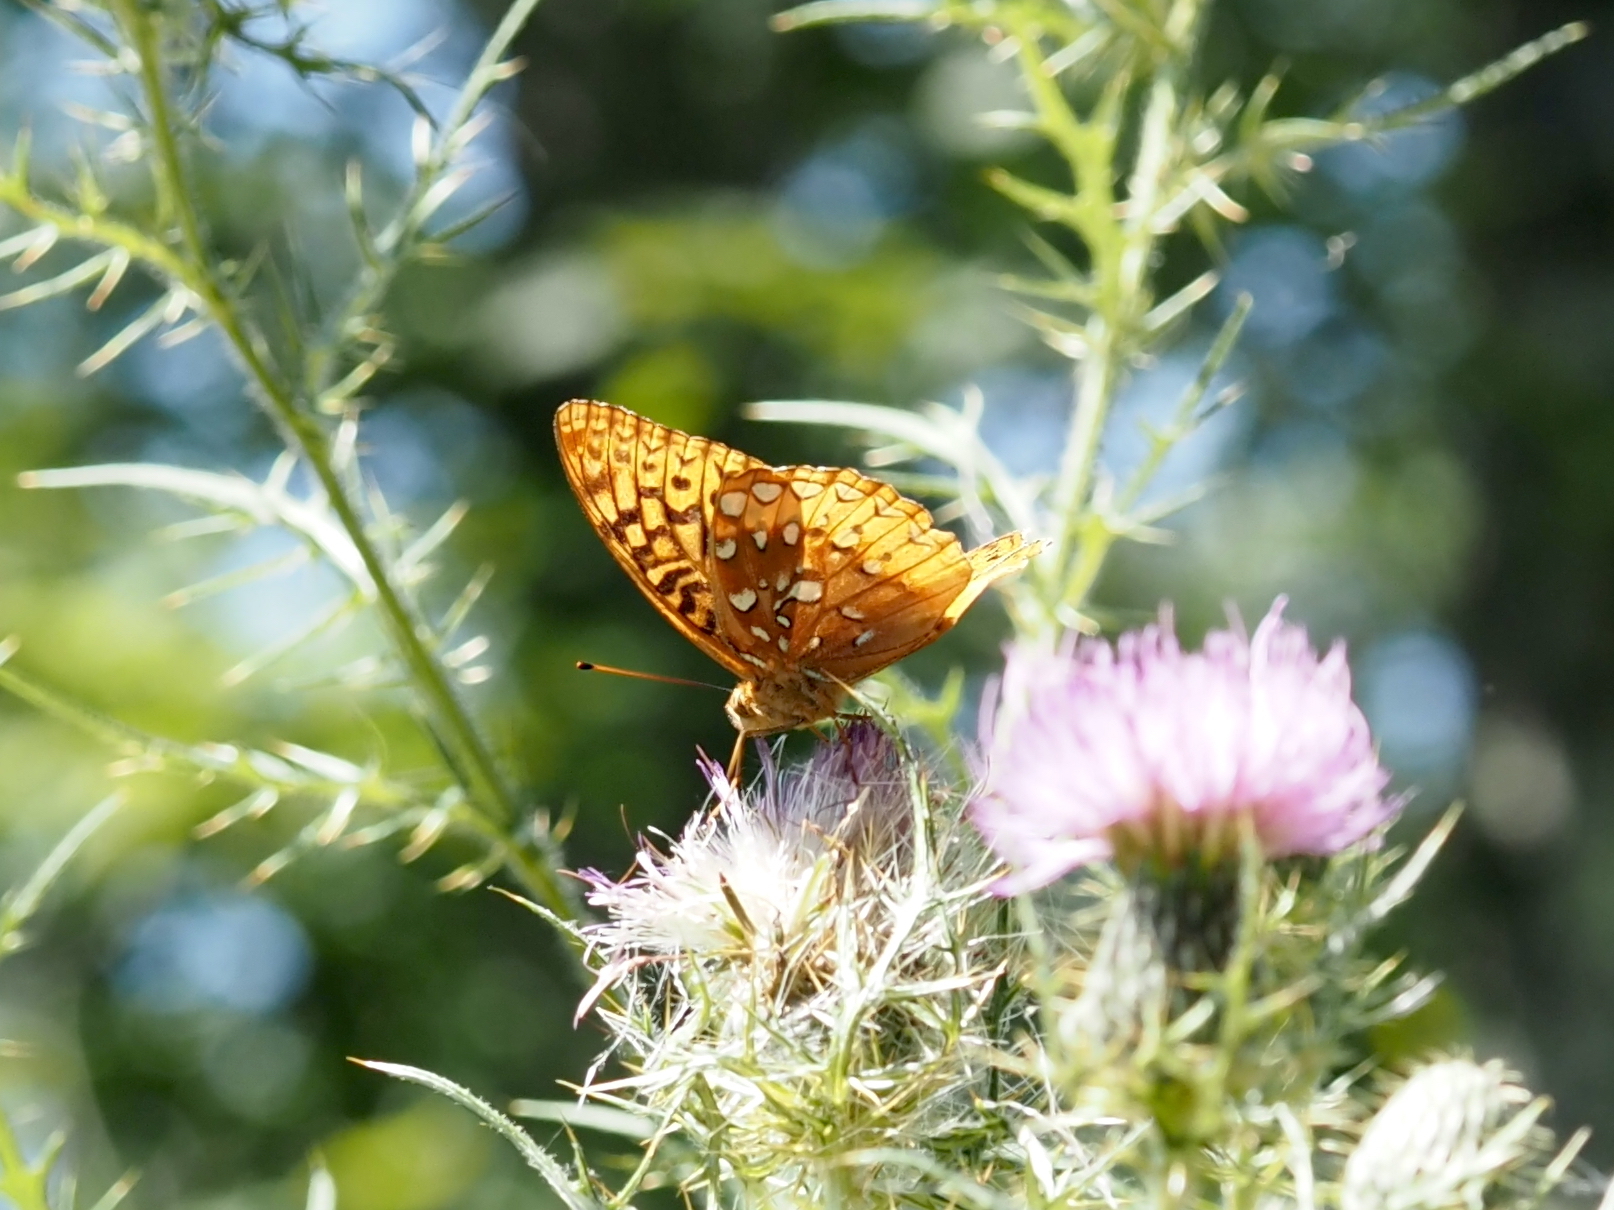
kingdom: Animalia
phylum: Arthropoda
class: Insecta
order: Lepidoptera
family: Nymphalidae
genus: Speyeria
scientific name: Speyeria cybele
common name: Great spangled fritillary
